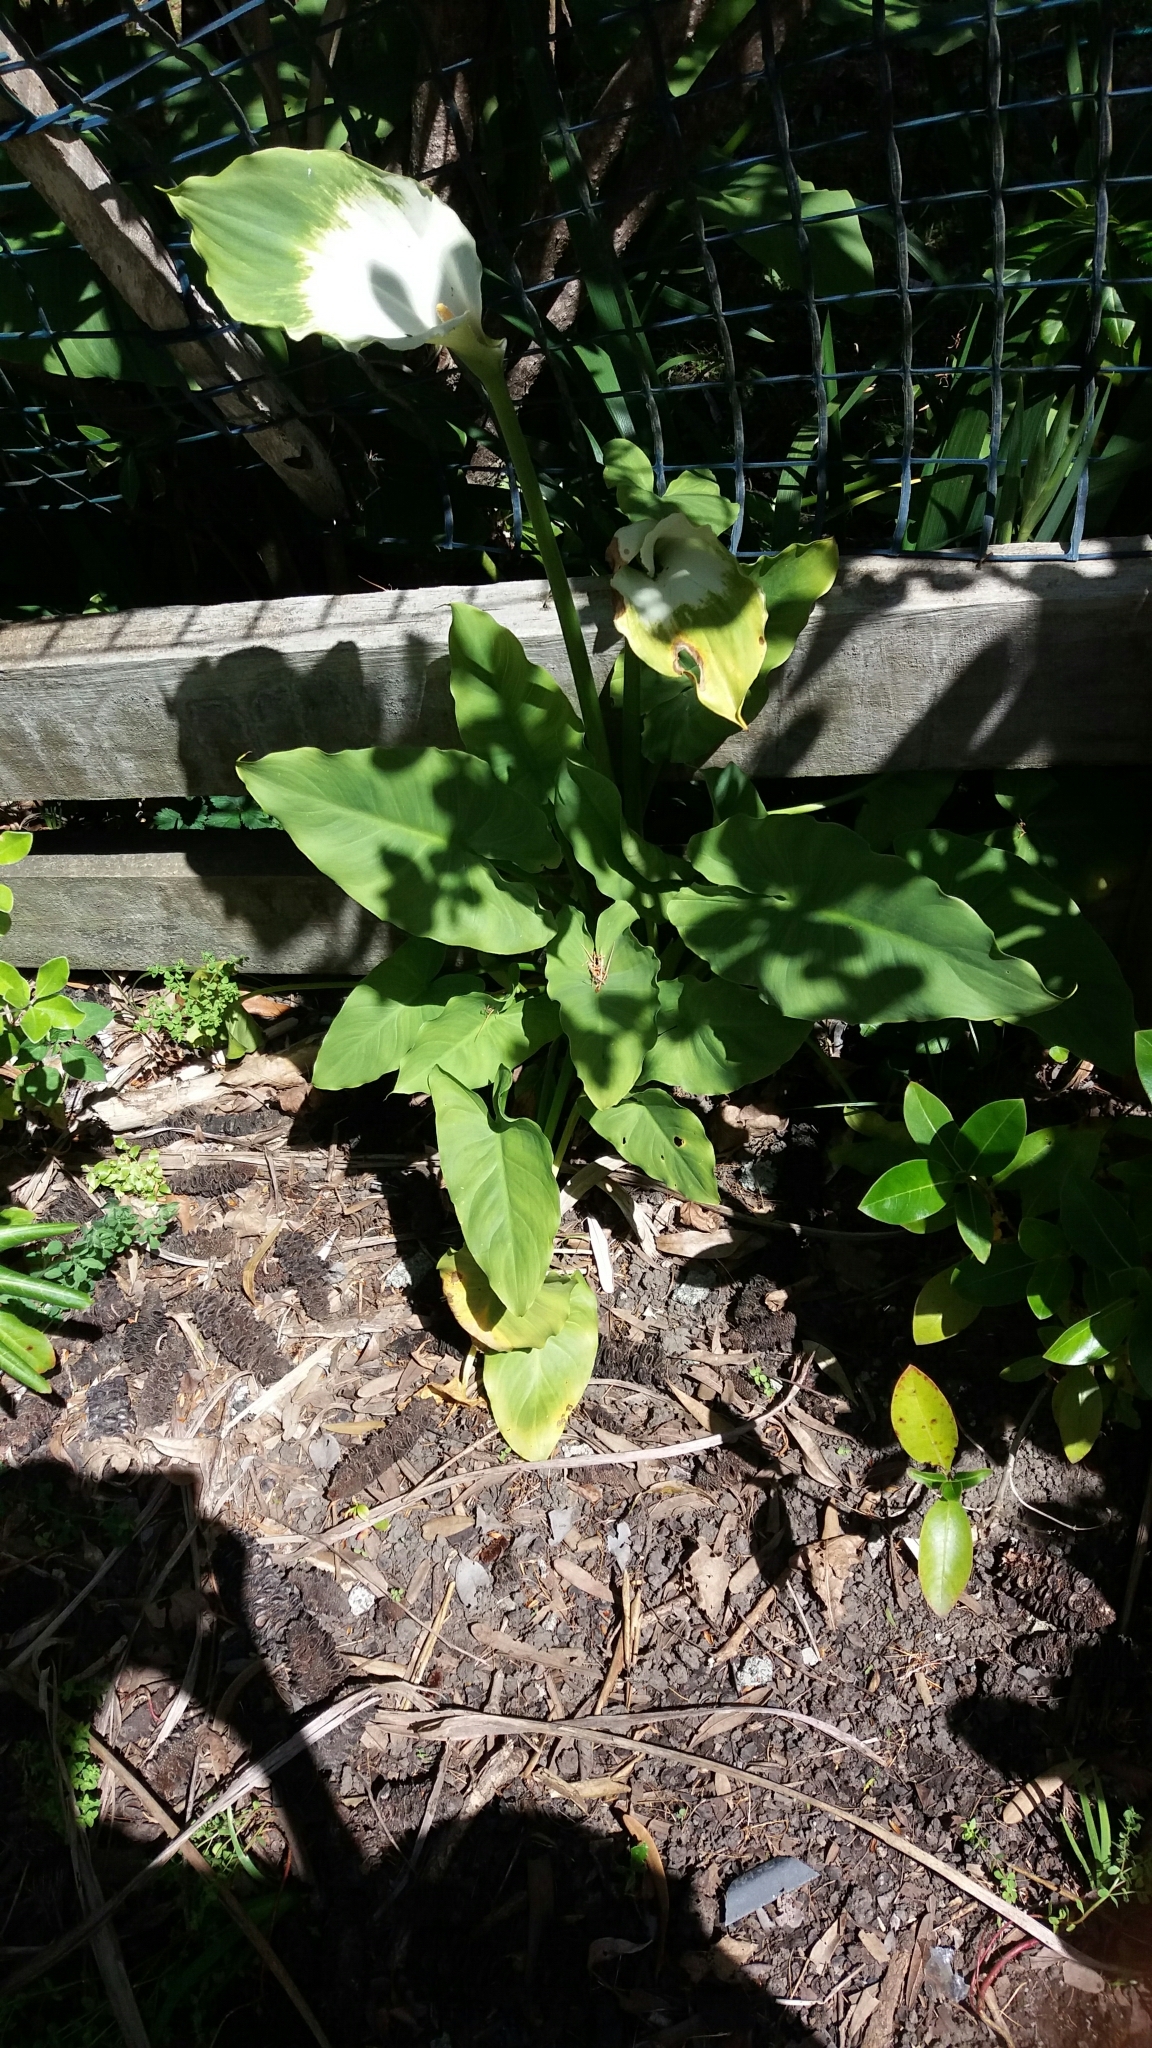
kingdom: Plantae
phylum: Tracheophyta
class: Liliopsida
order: Alismatales
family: Araceae
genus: Zantedeschia
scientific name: Zantedeschia aethiopica
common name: Altar-lily
